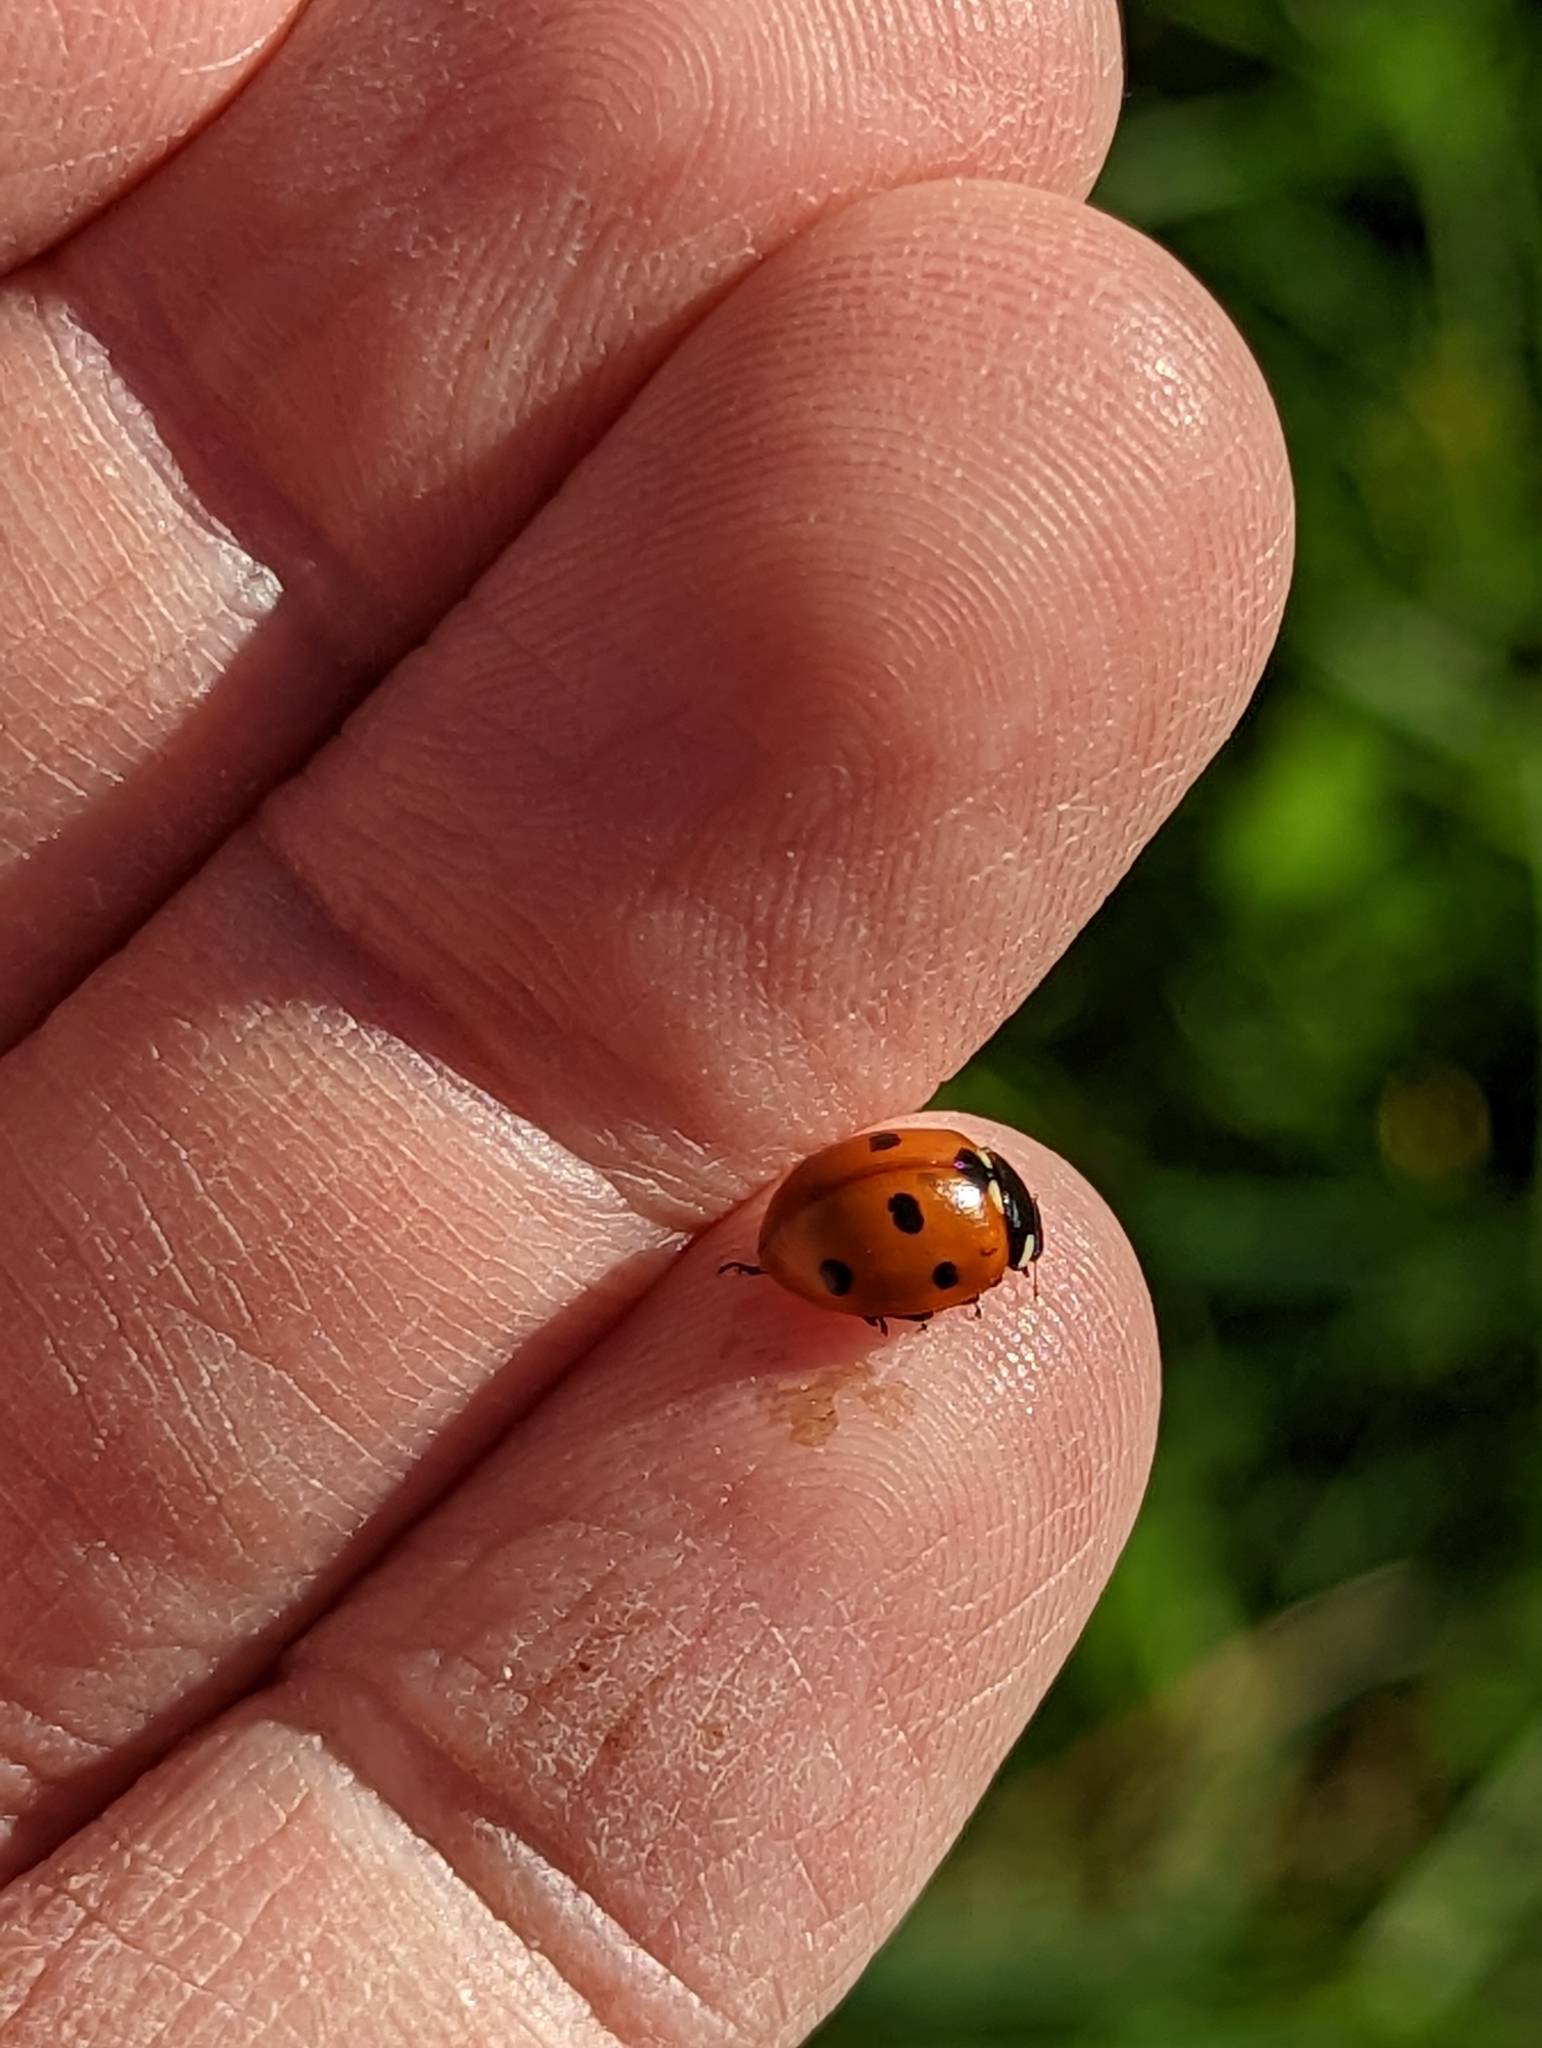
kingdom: Animalia
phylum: Arthropoda
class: Insecta
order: Coleoptera
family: Coccinellidae
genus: Coccinella
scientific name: Coccinella septempunctata
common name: Sevenspotted lady beetle
